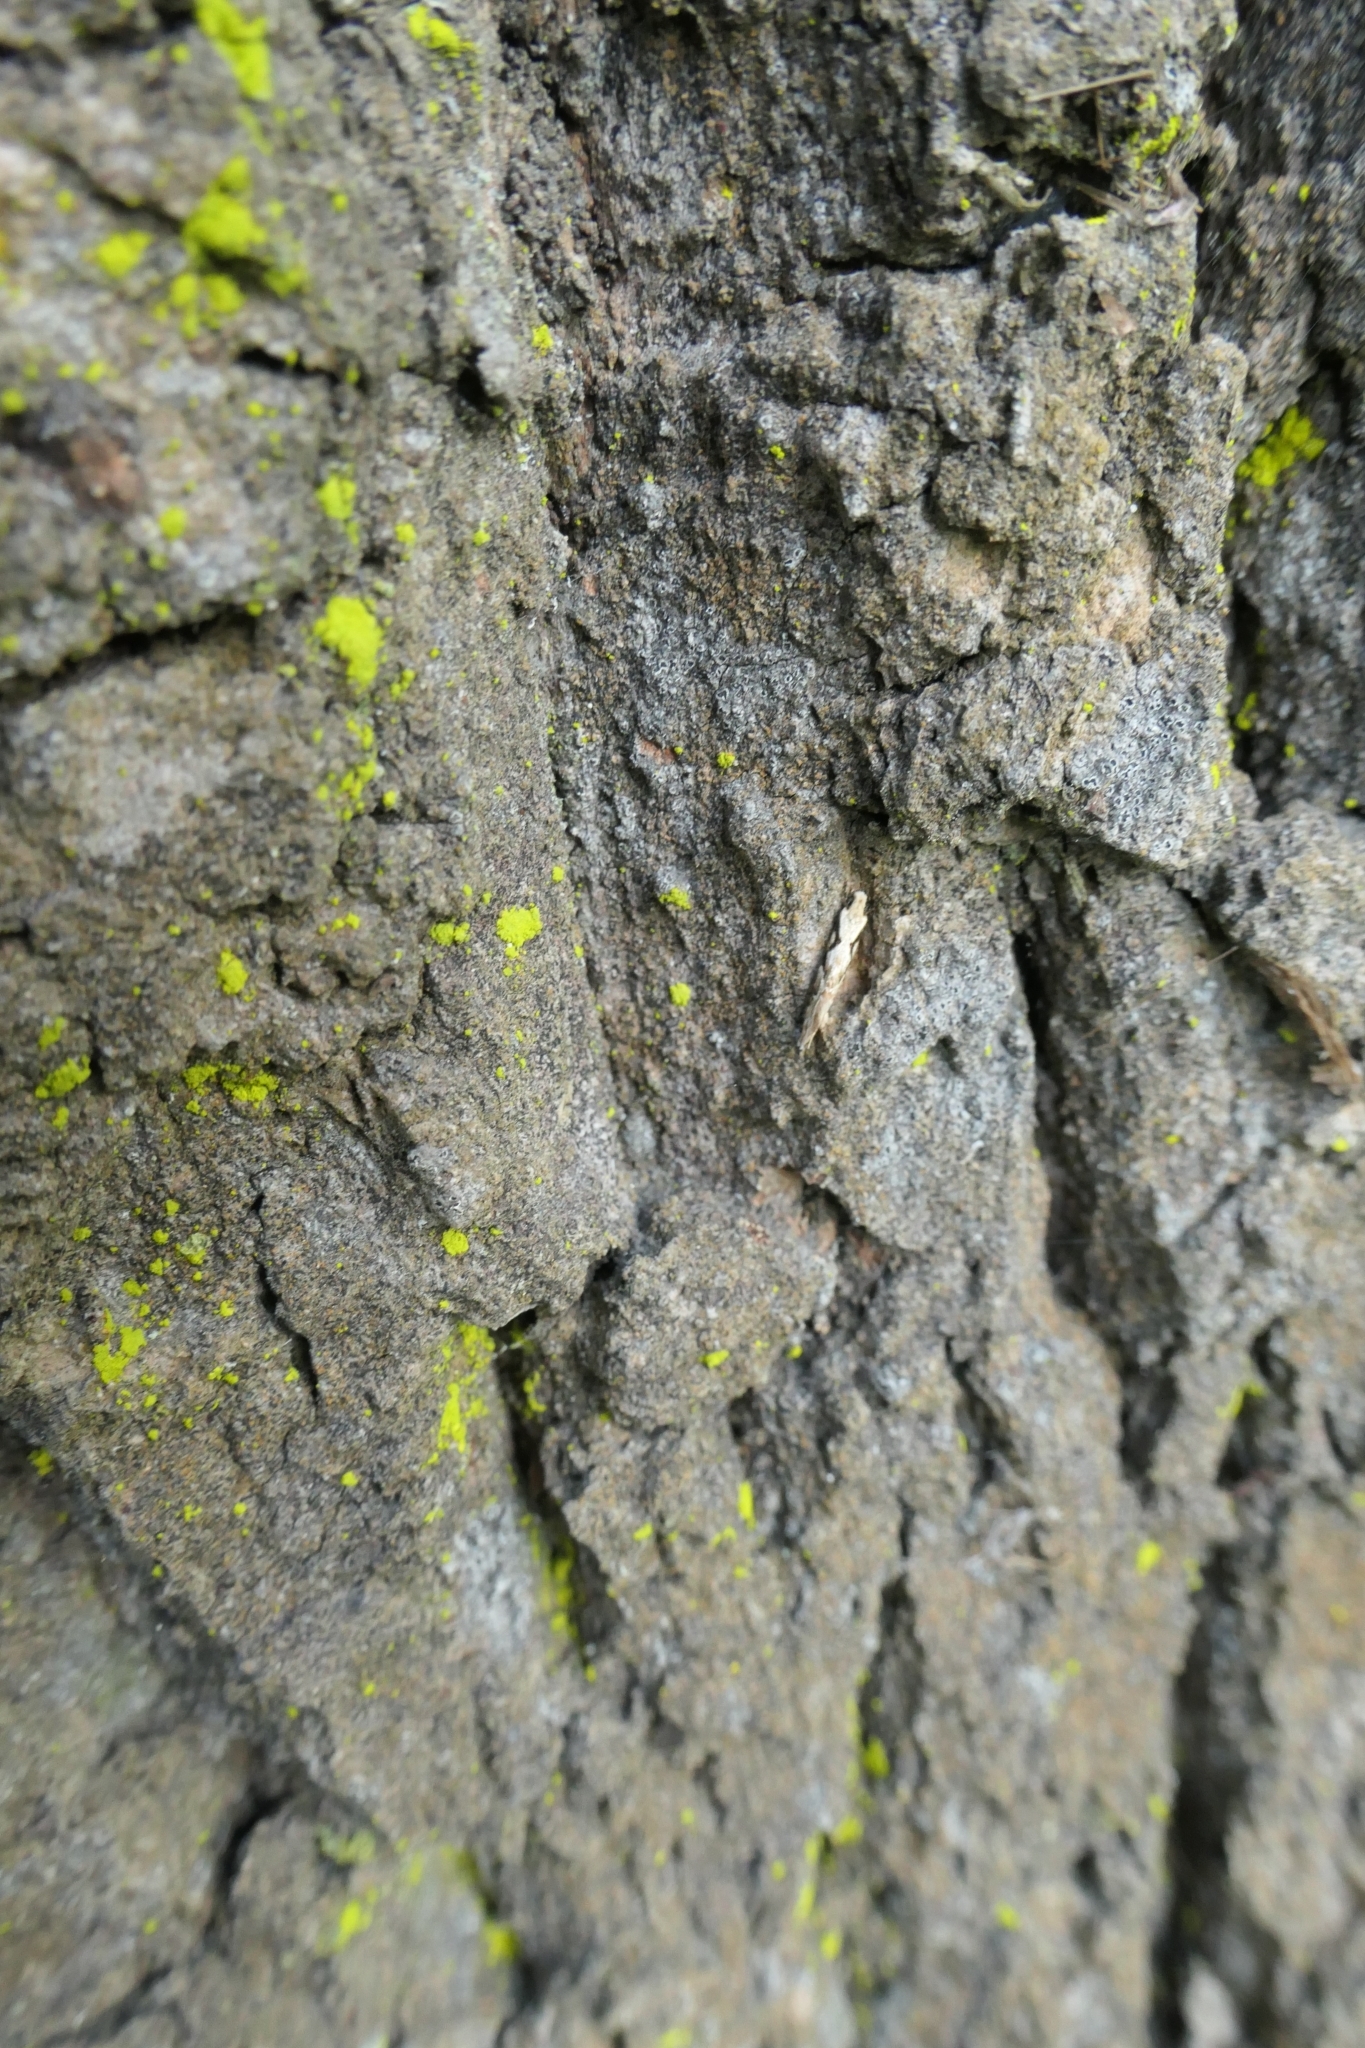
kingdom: Animalia
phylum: Arthropoda
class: Insecta
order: Lepidoptera
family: Tineidae
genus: Crypsitricha
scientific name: Crypsitricha mesotypa
